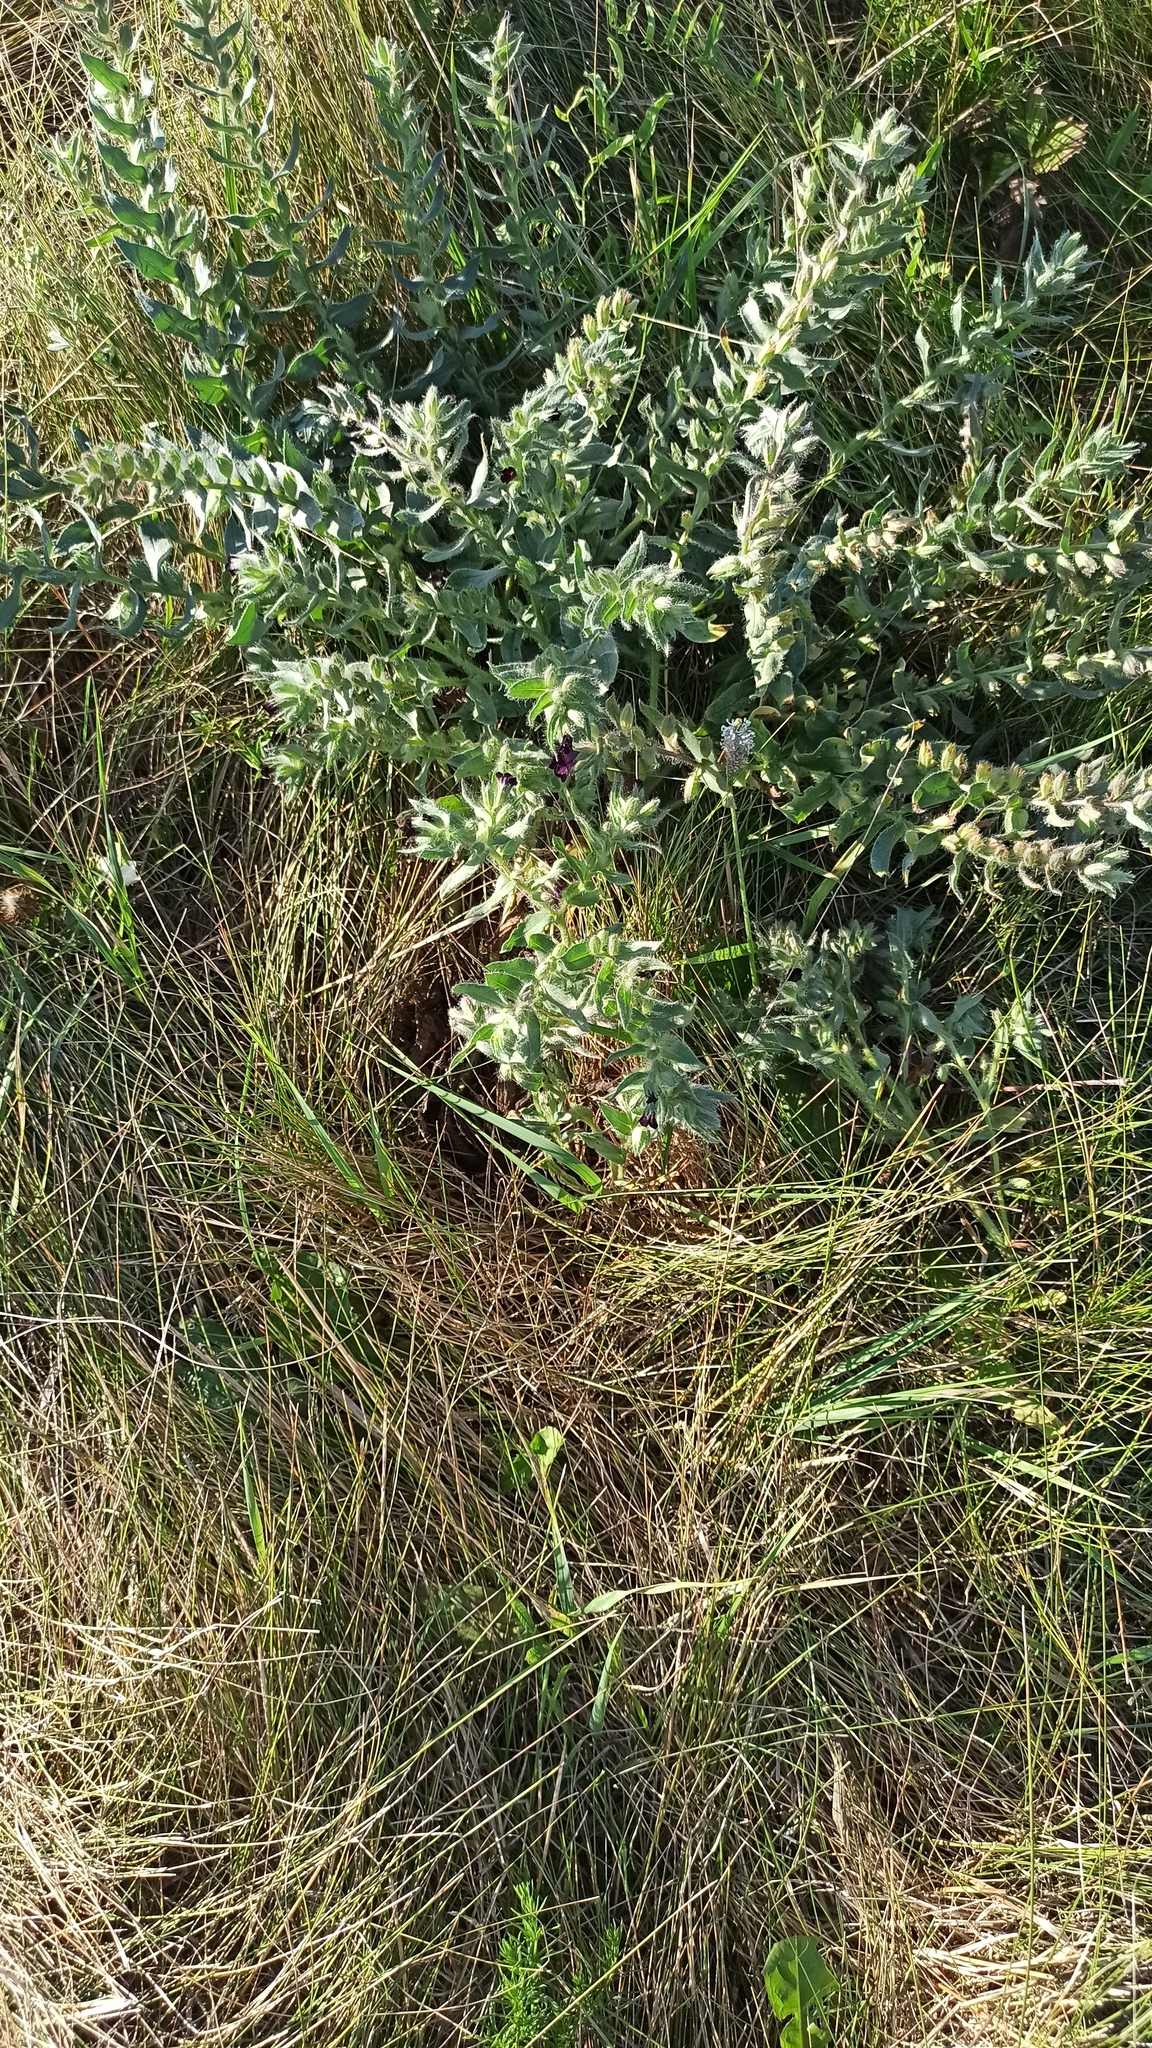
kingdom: Plantae
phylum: Tracheophyta
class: Magnoliopsida
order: Boraginales
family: Boraginaceae
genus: Nonea
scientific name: Nonea pulla
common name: Brown nonea
